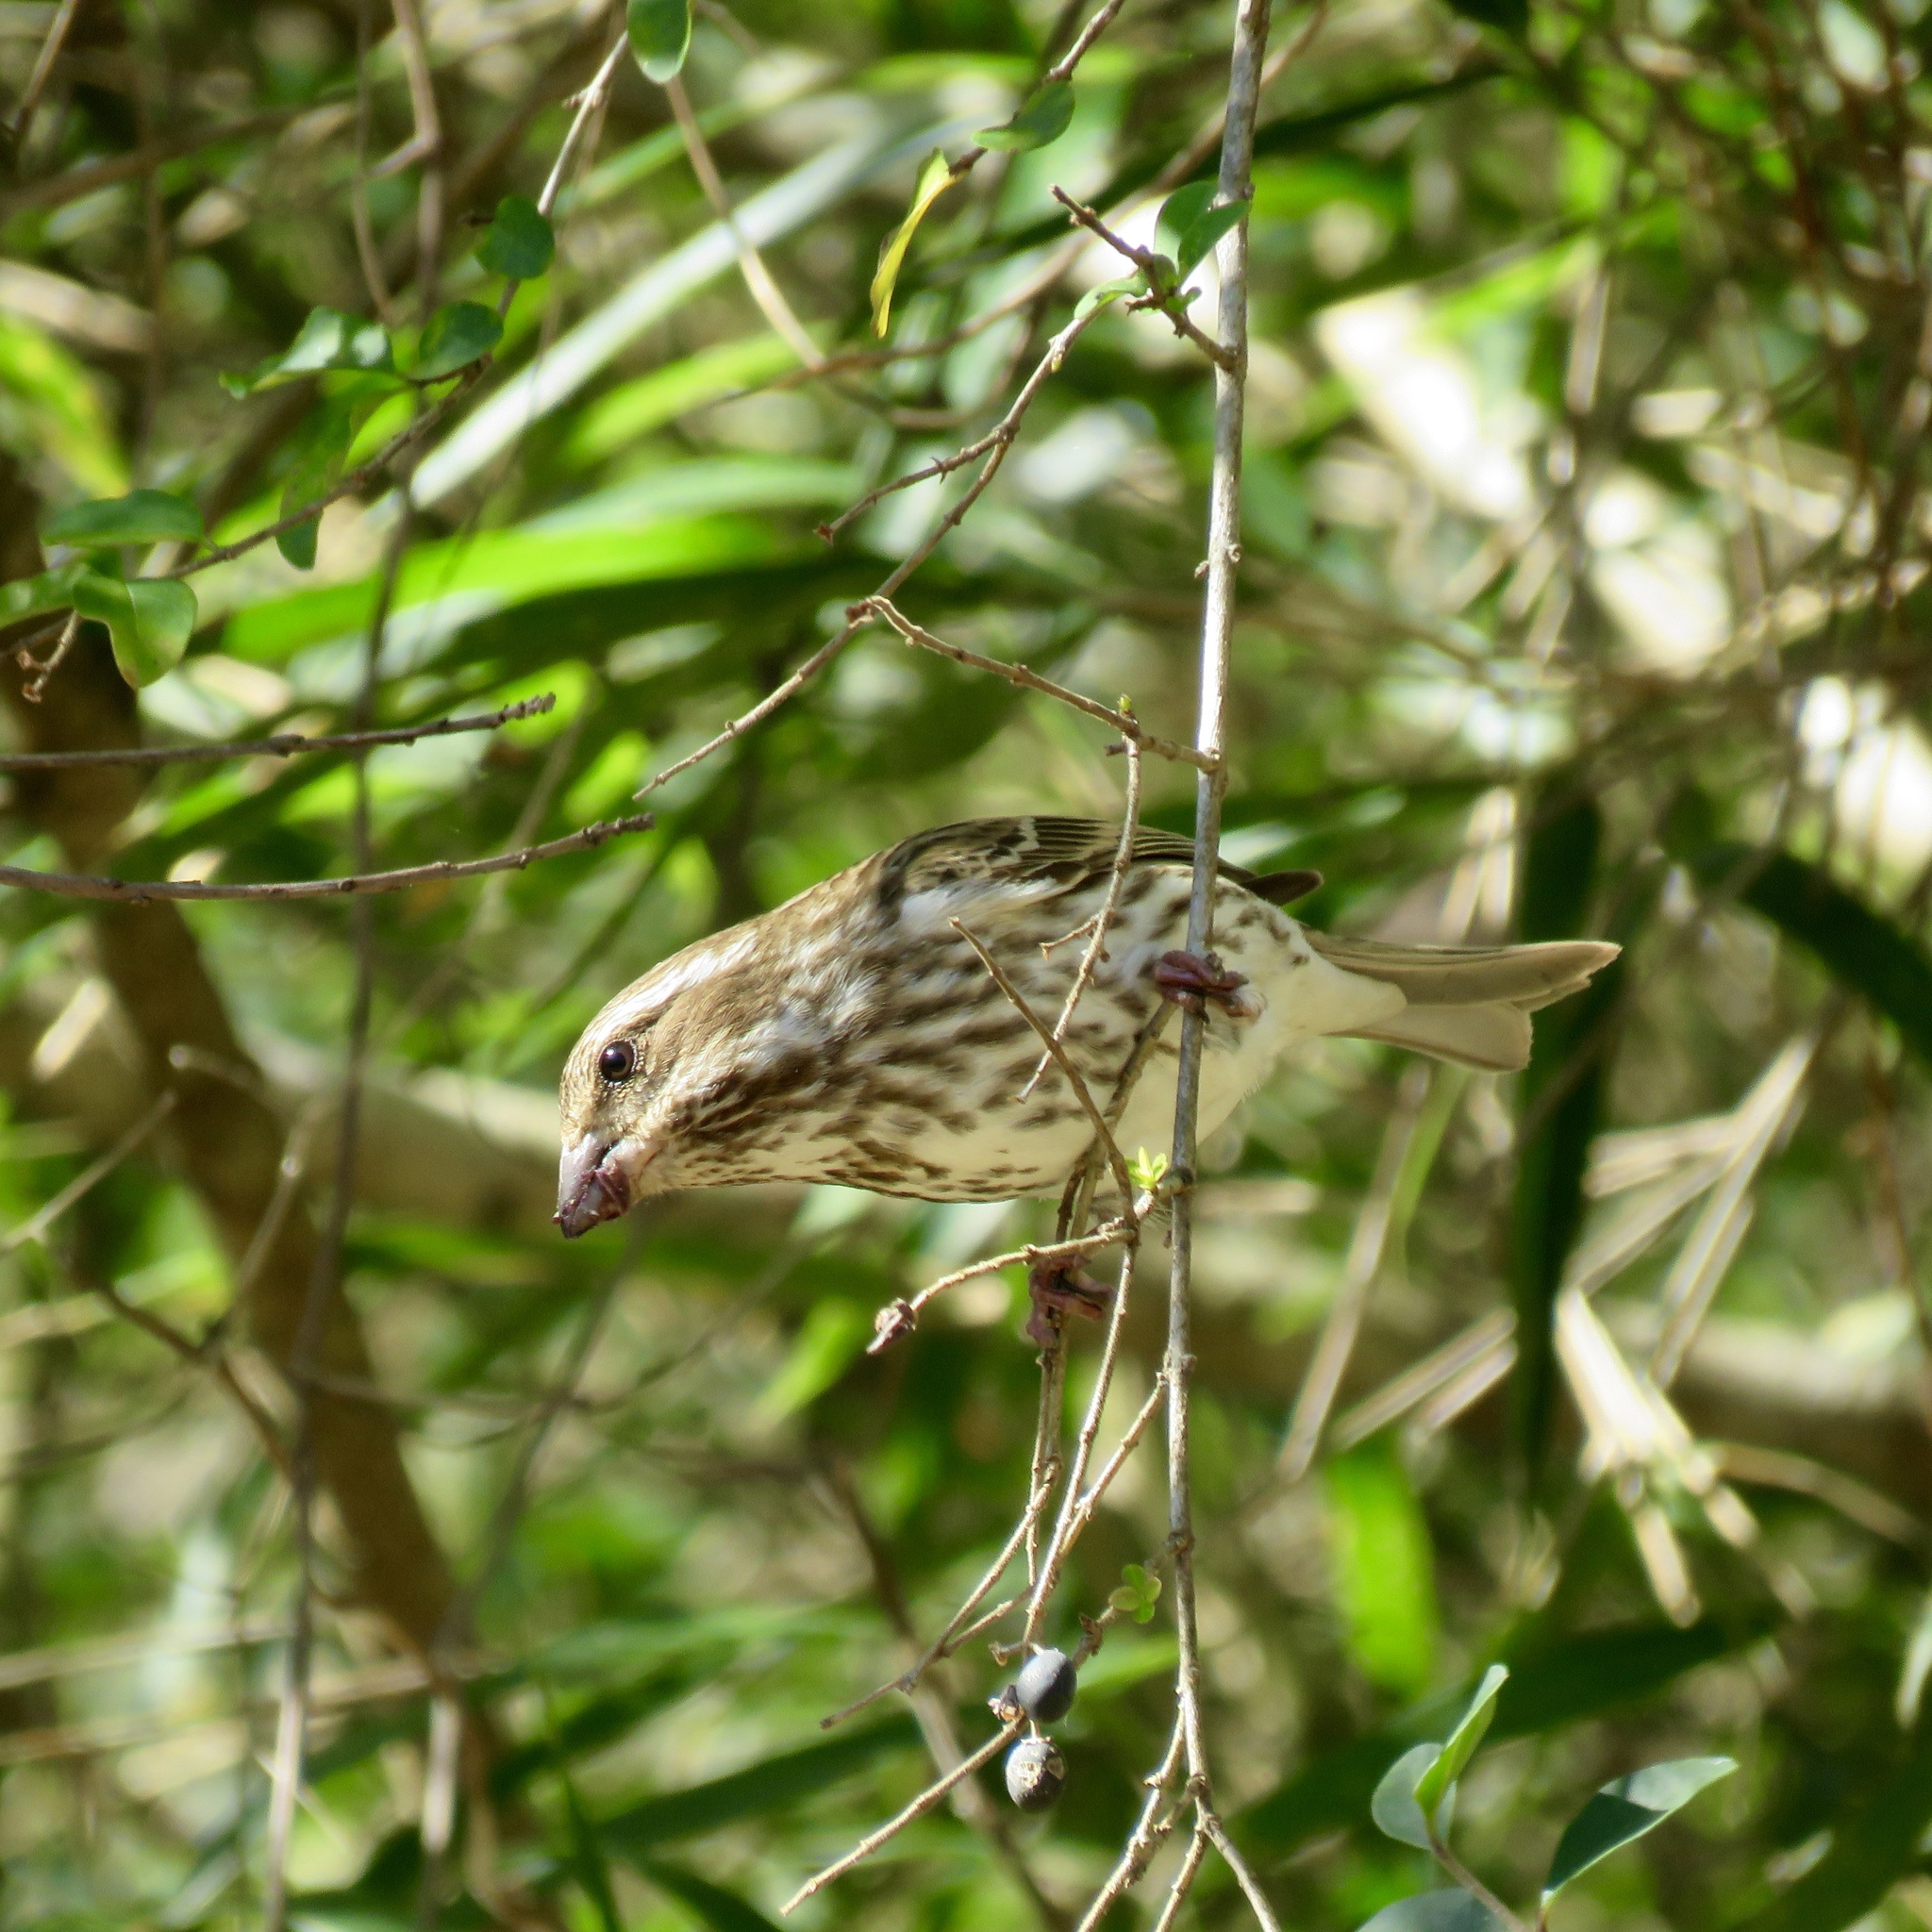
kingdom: Animalia
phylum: Chordata
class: Aves
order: Passeriformes
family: Fringillidae
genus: Haemorhous
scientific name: Haemorhous purpureus
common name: Purple finch
